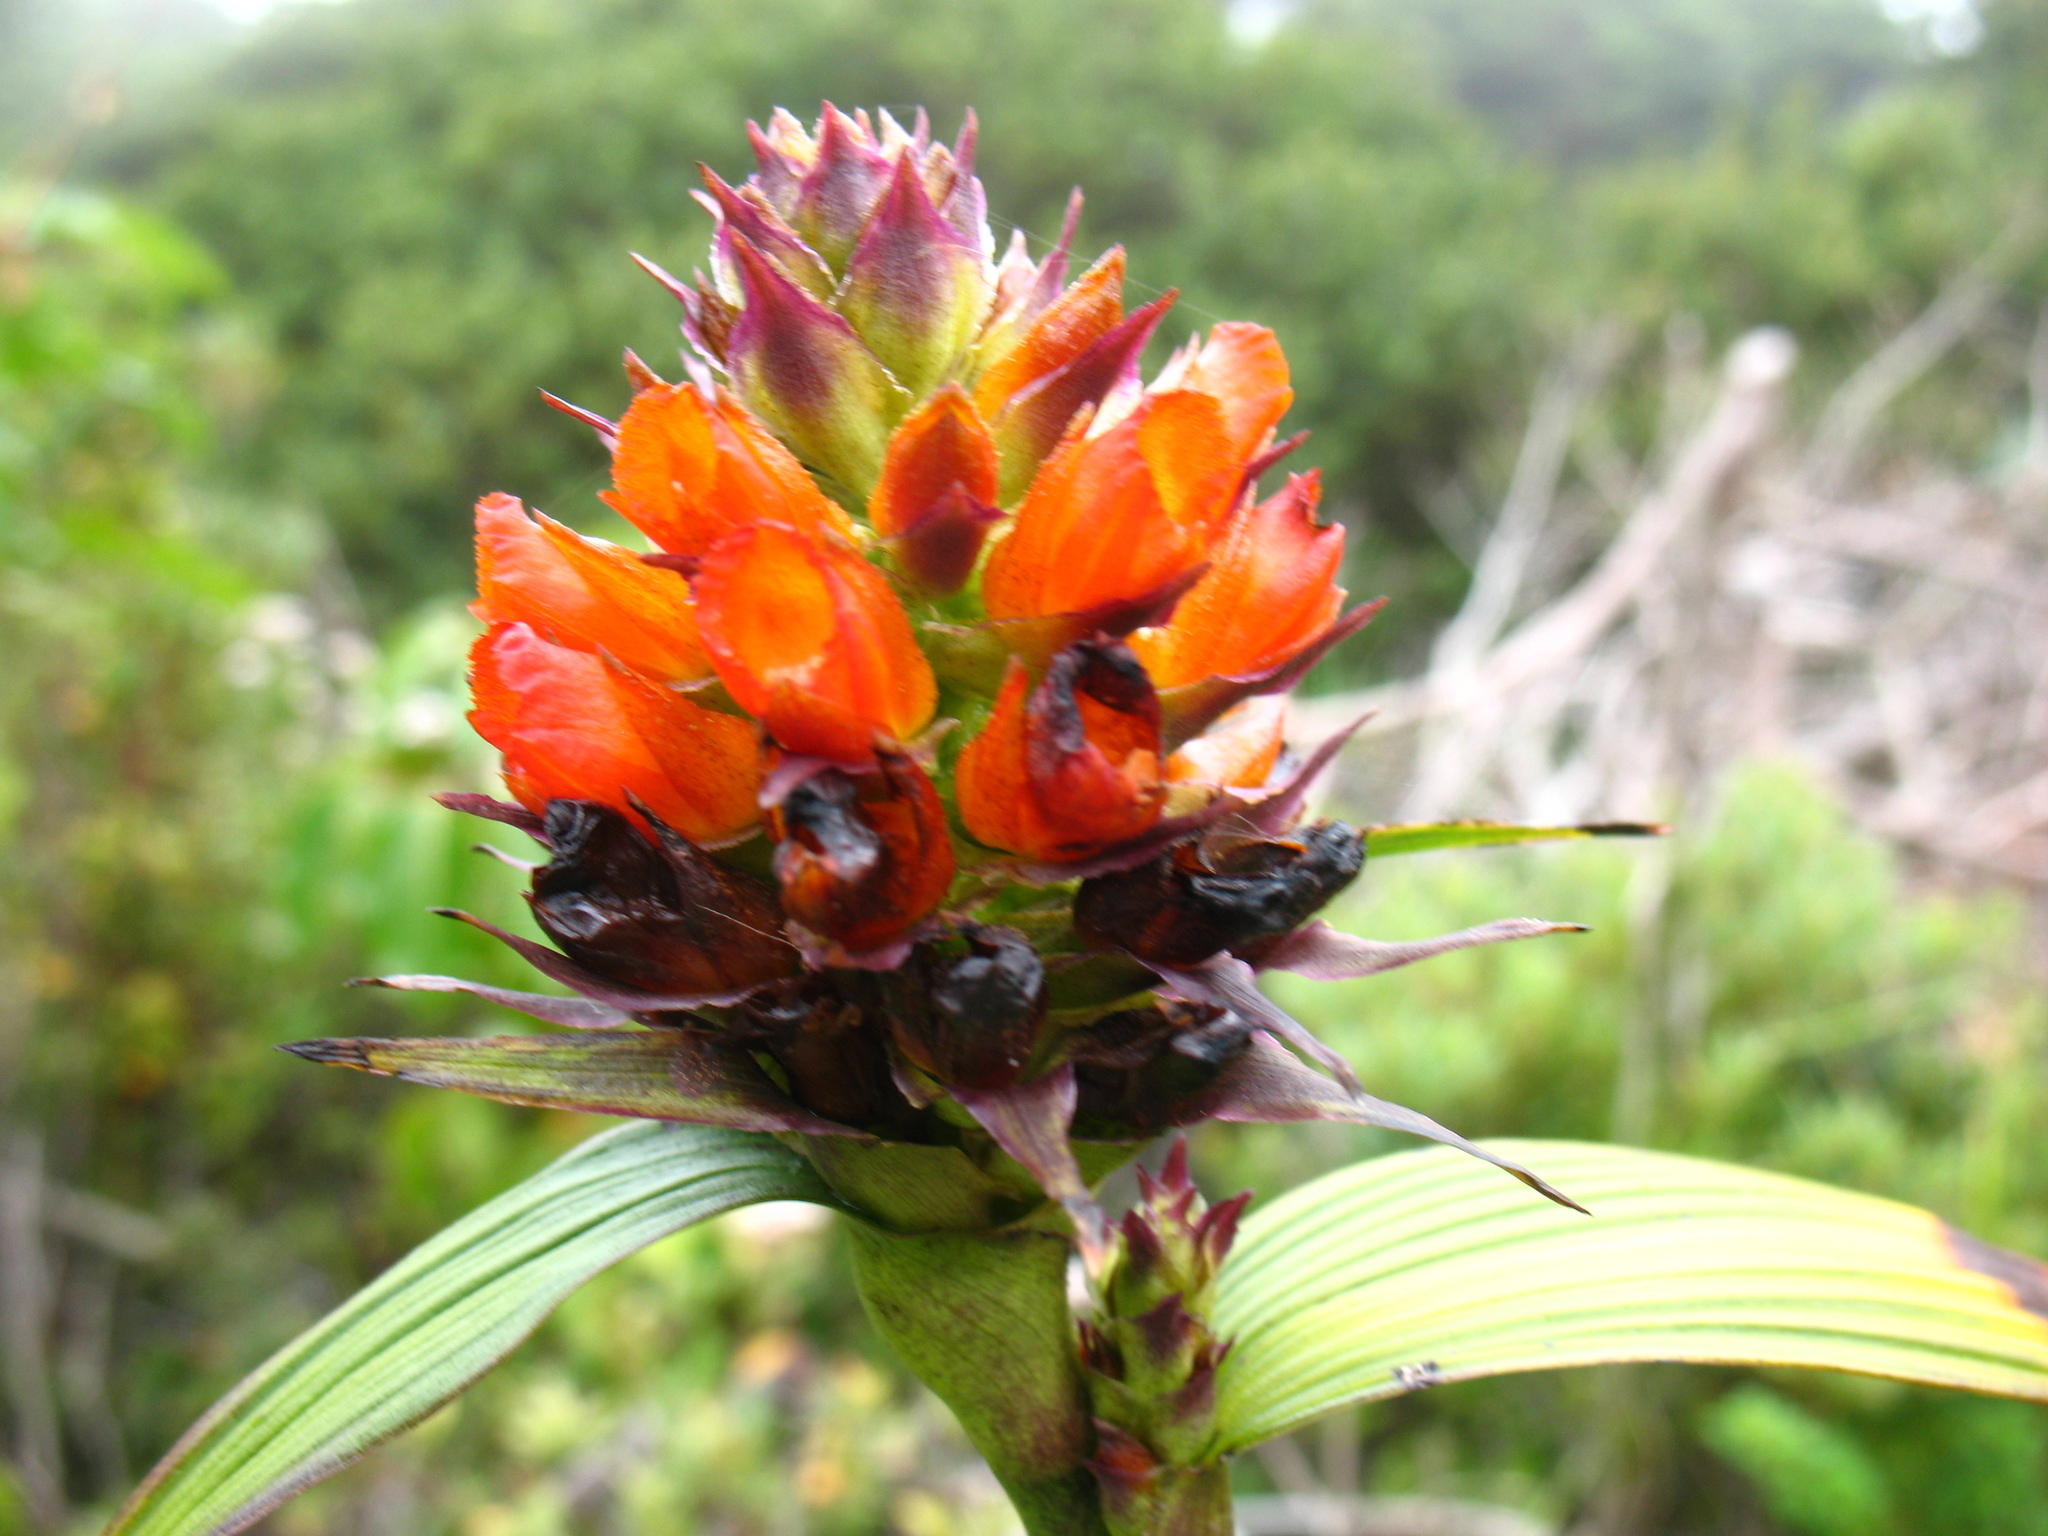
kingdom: Plantae
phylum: Tracheophyta
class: Liliopsida
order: Asparagales
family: Orchidaceae
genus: Elleanthus
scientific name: Elleanthus aurantiacus
